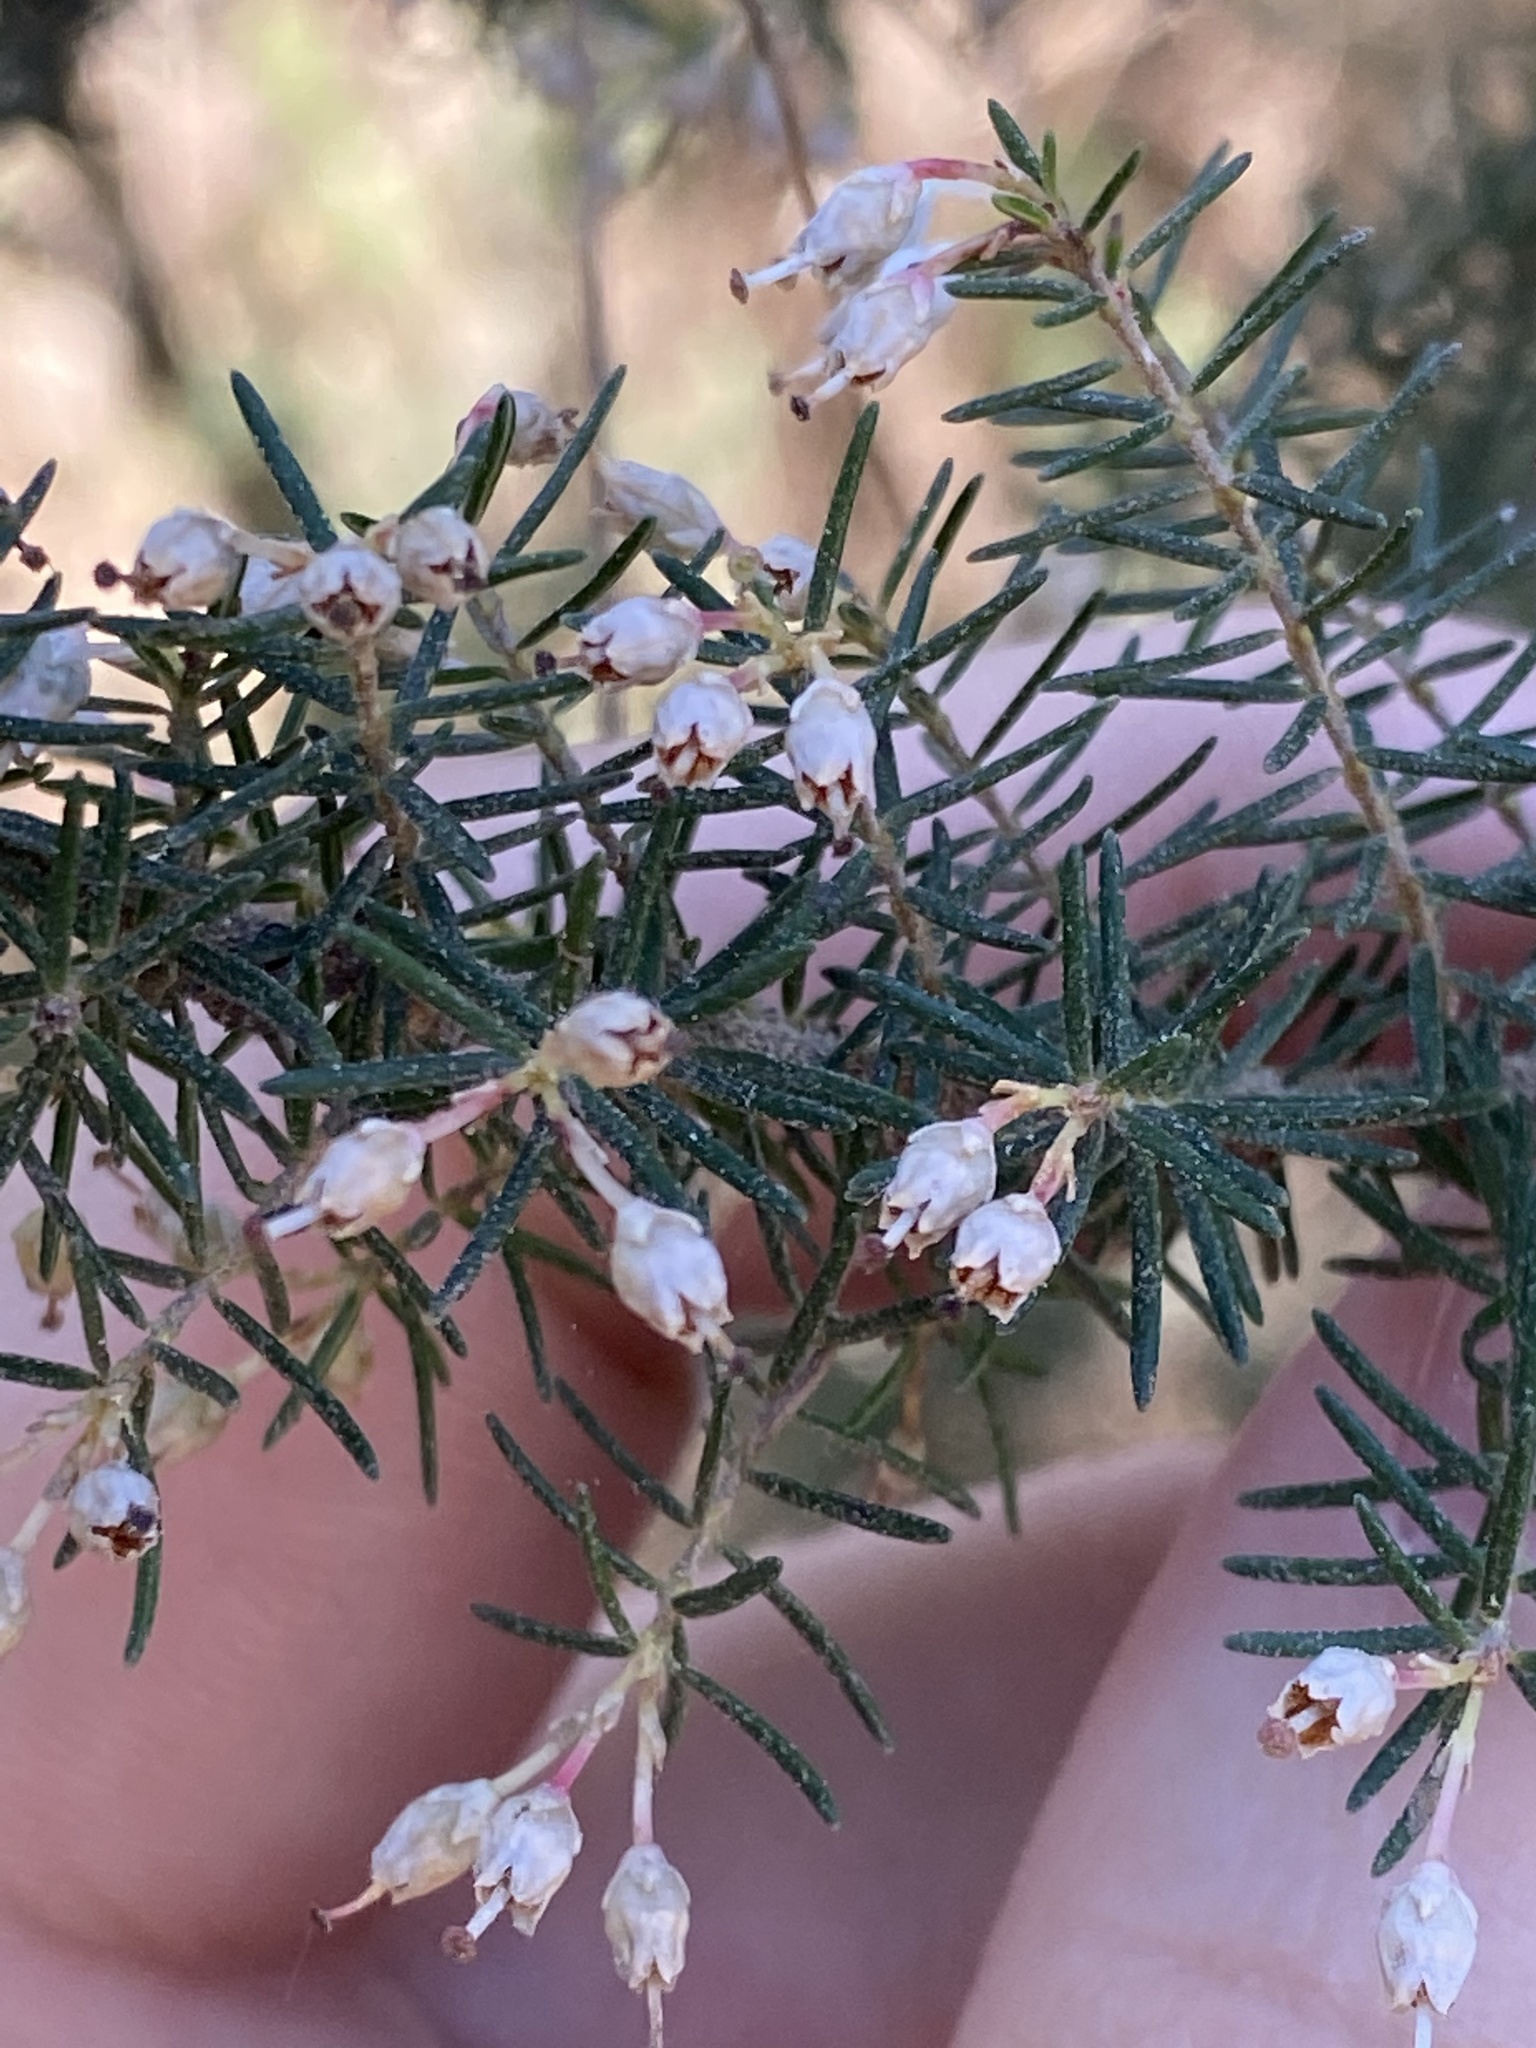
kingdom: Plantae
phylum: Tracheophyta
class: Magnoliopsida
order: Ericales
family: Ericaceae
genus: Erica
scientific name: Erica canariensis
